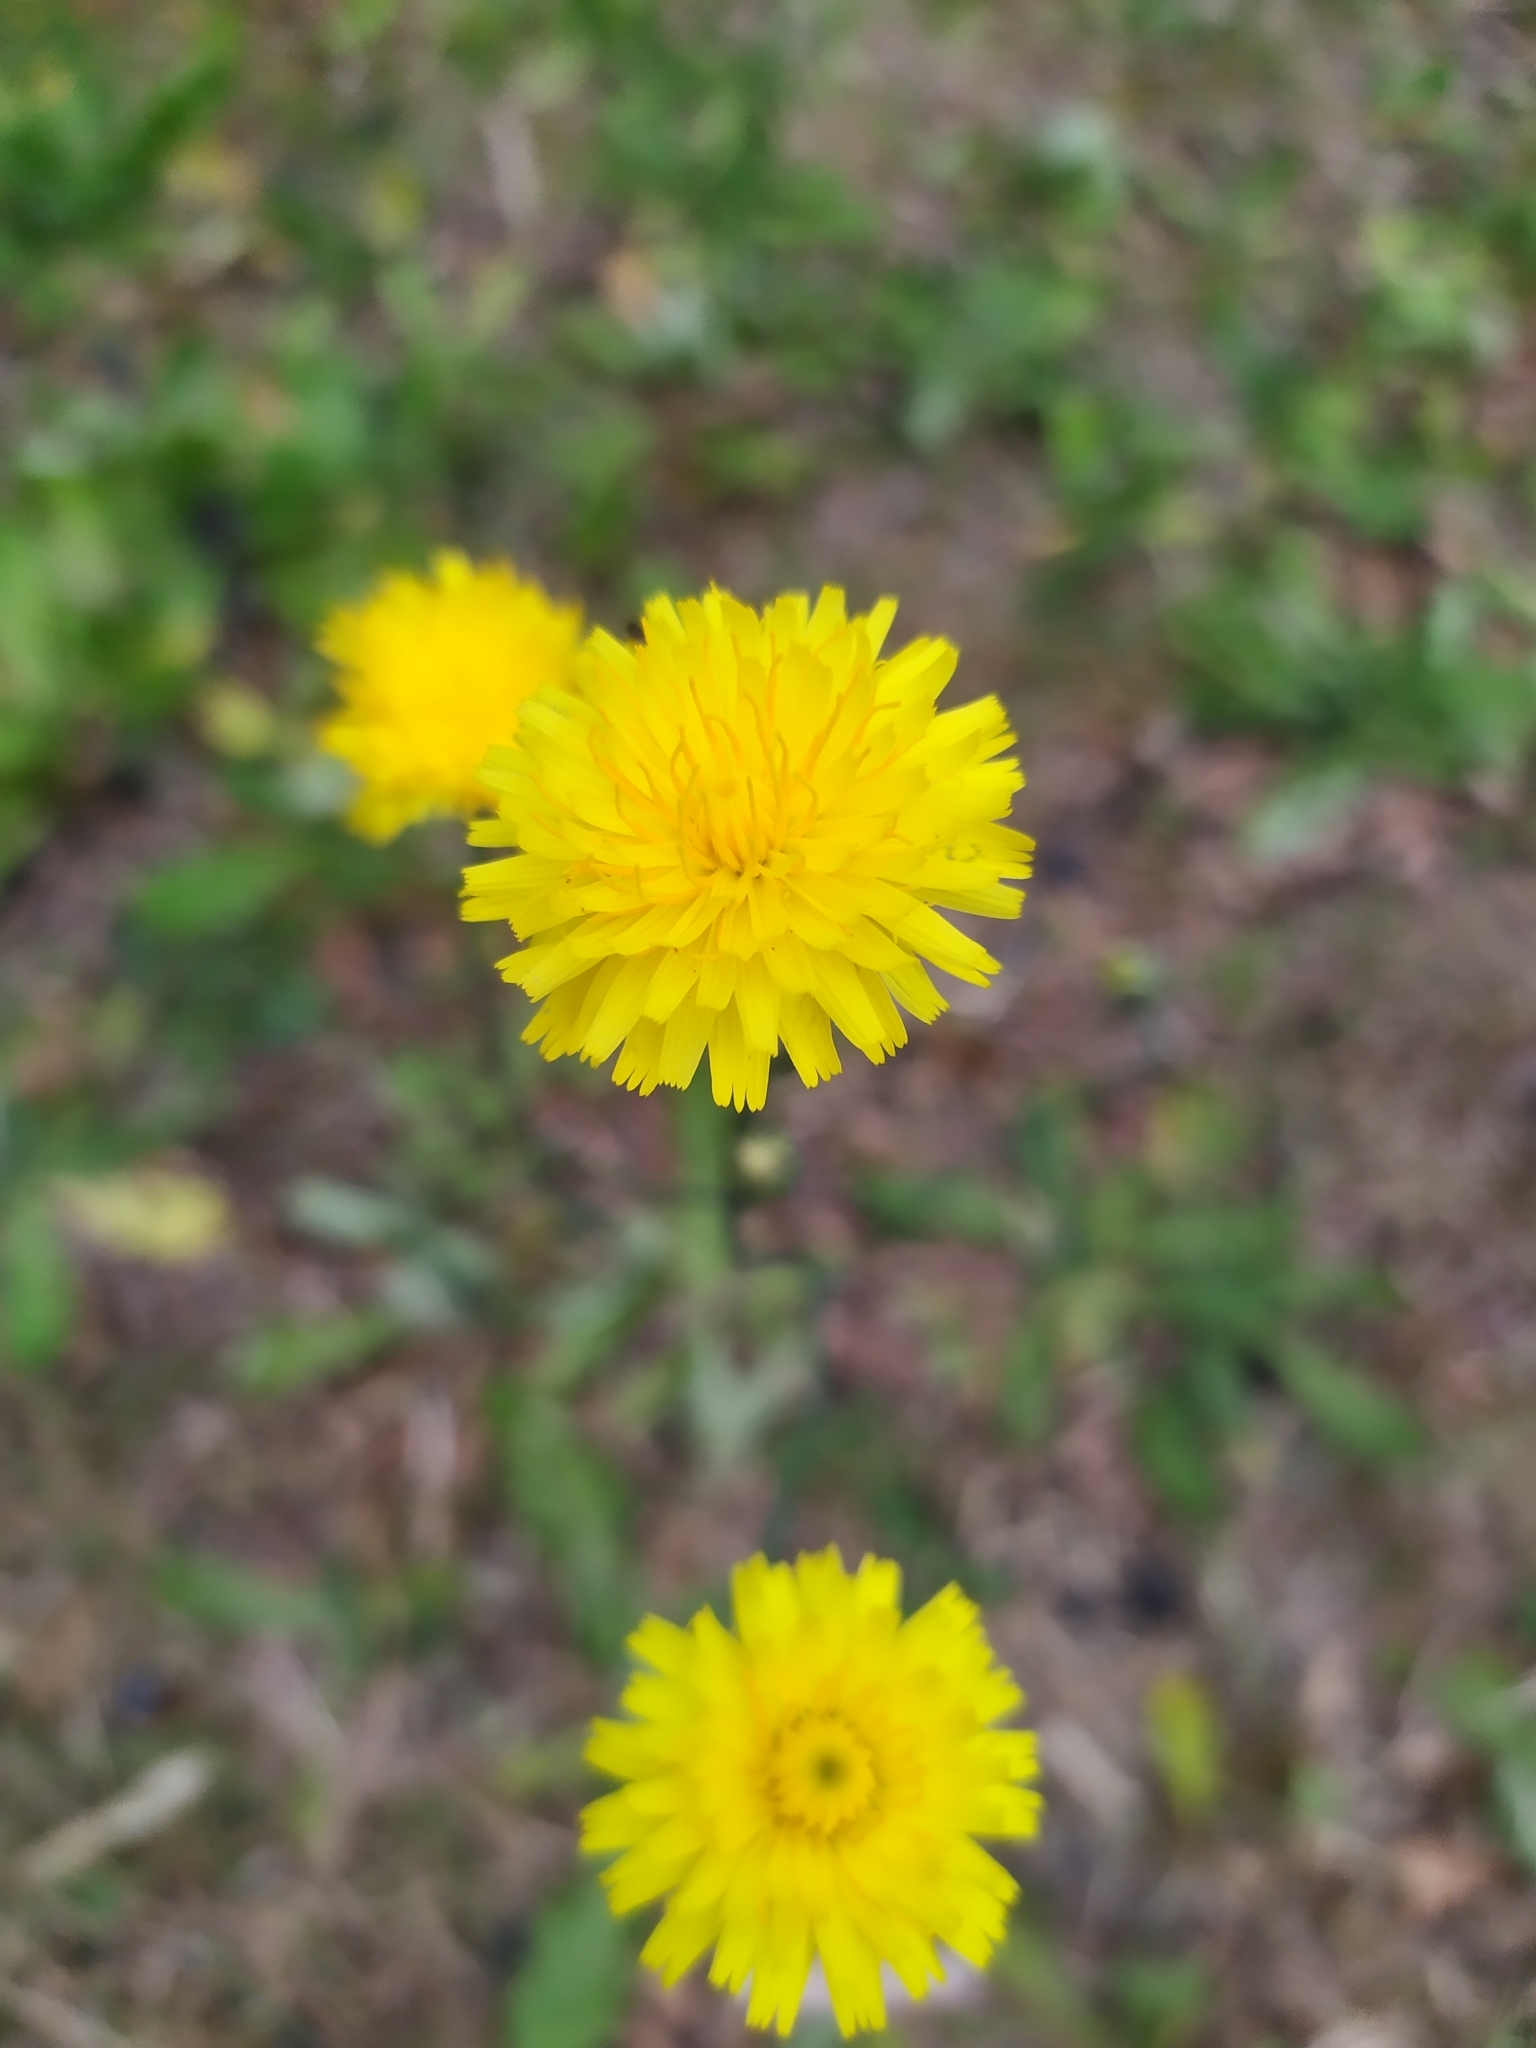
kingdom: Plantae
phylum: Tracheophyta
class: Magnoliopsida
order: Asterales
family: Asteraceae
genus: Hypochaeris
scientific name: Hypochaeris radicata
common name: Flatweed
